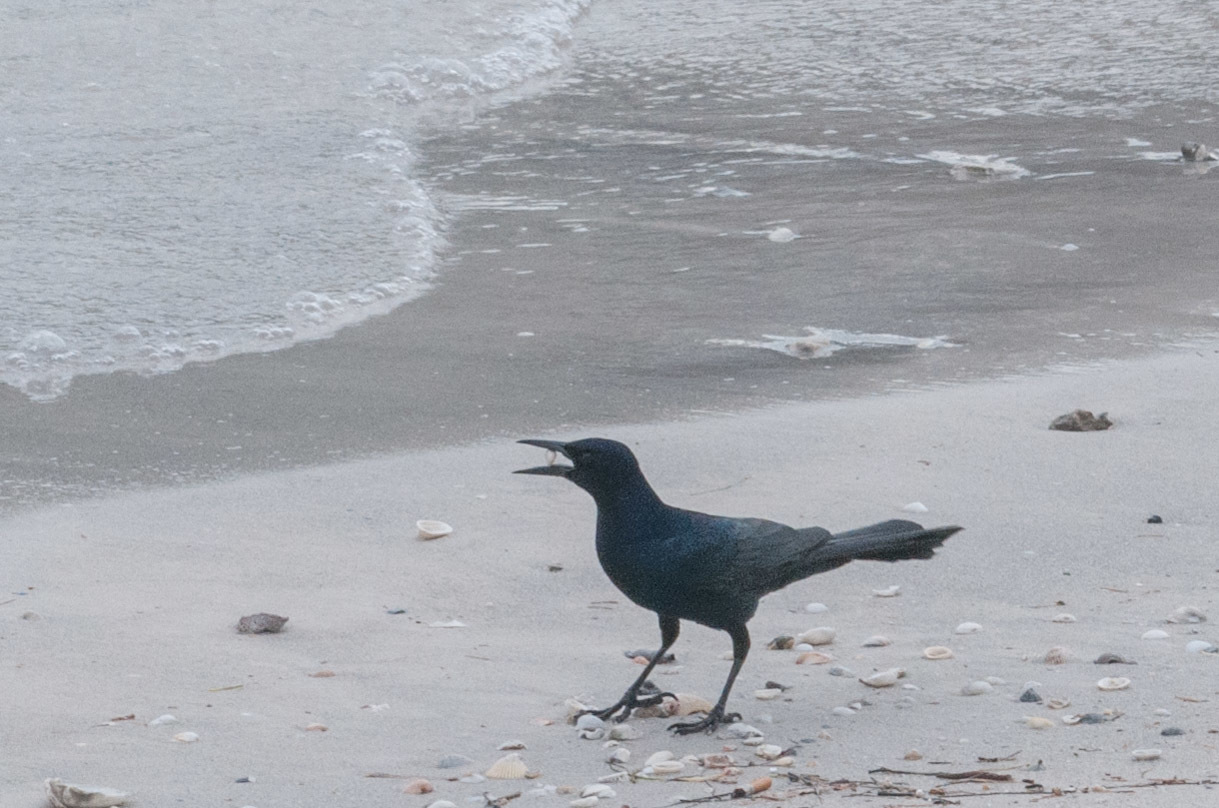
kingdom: Animalia
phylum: Chordata
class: Aves
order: Passeriformes
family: Icteridae
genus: Quiscalus
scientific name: Quiscalus major
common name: Boat-tailed grackle
